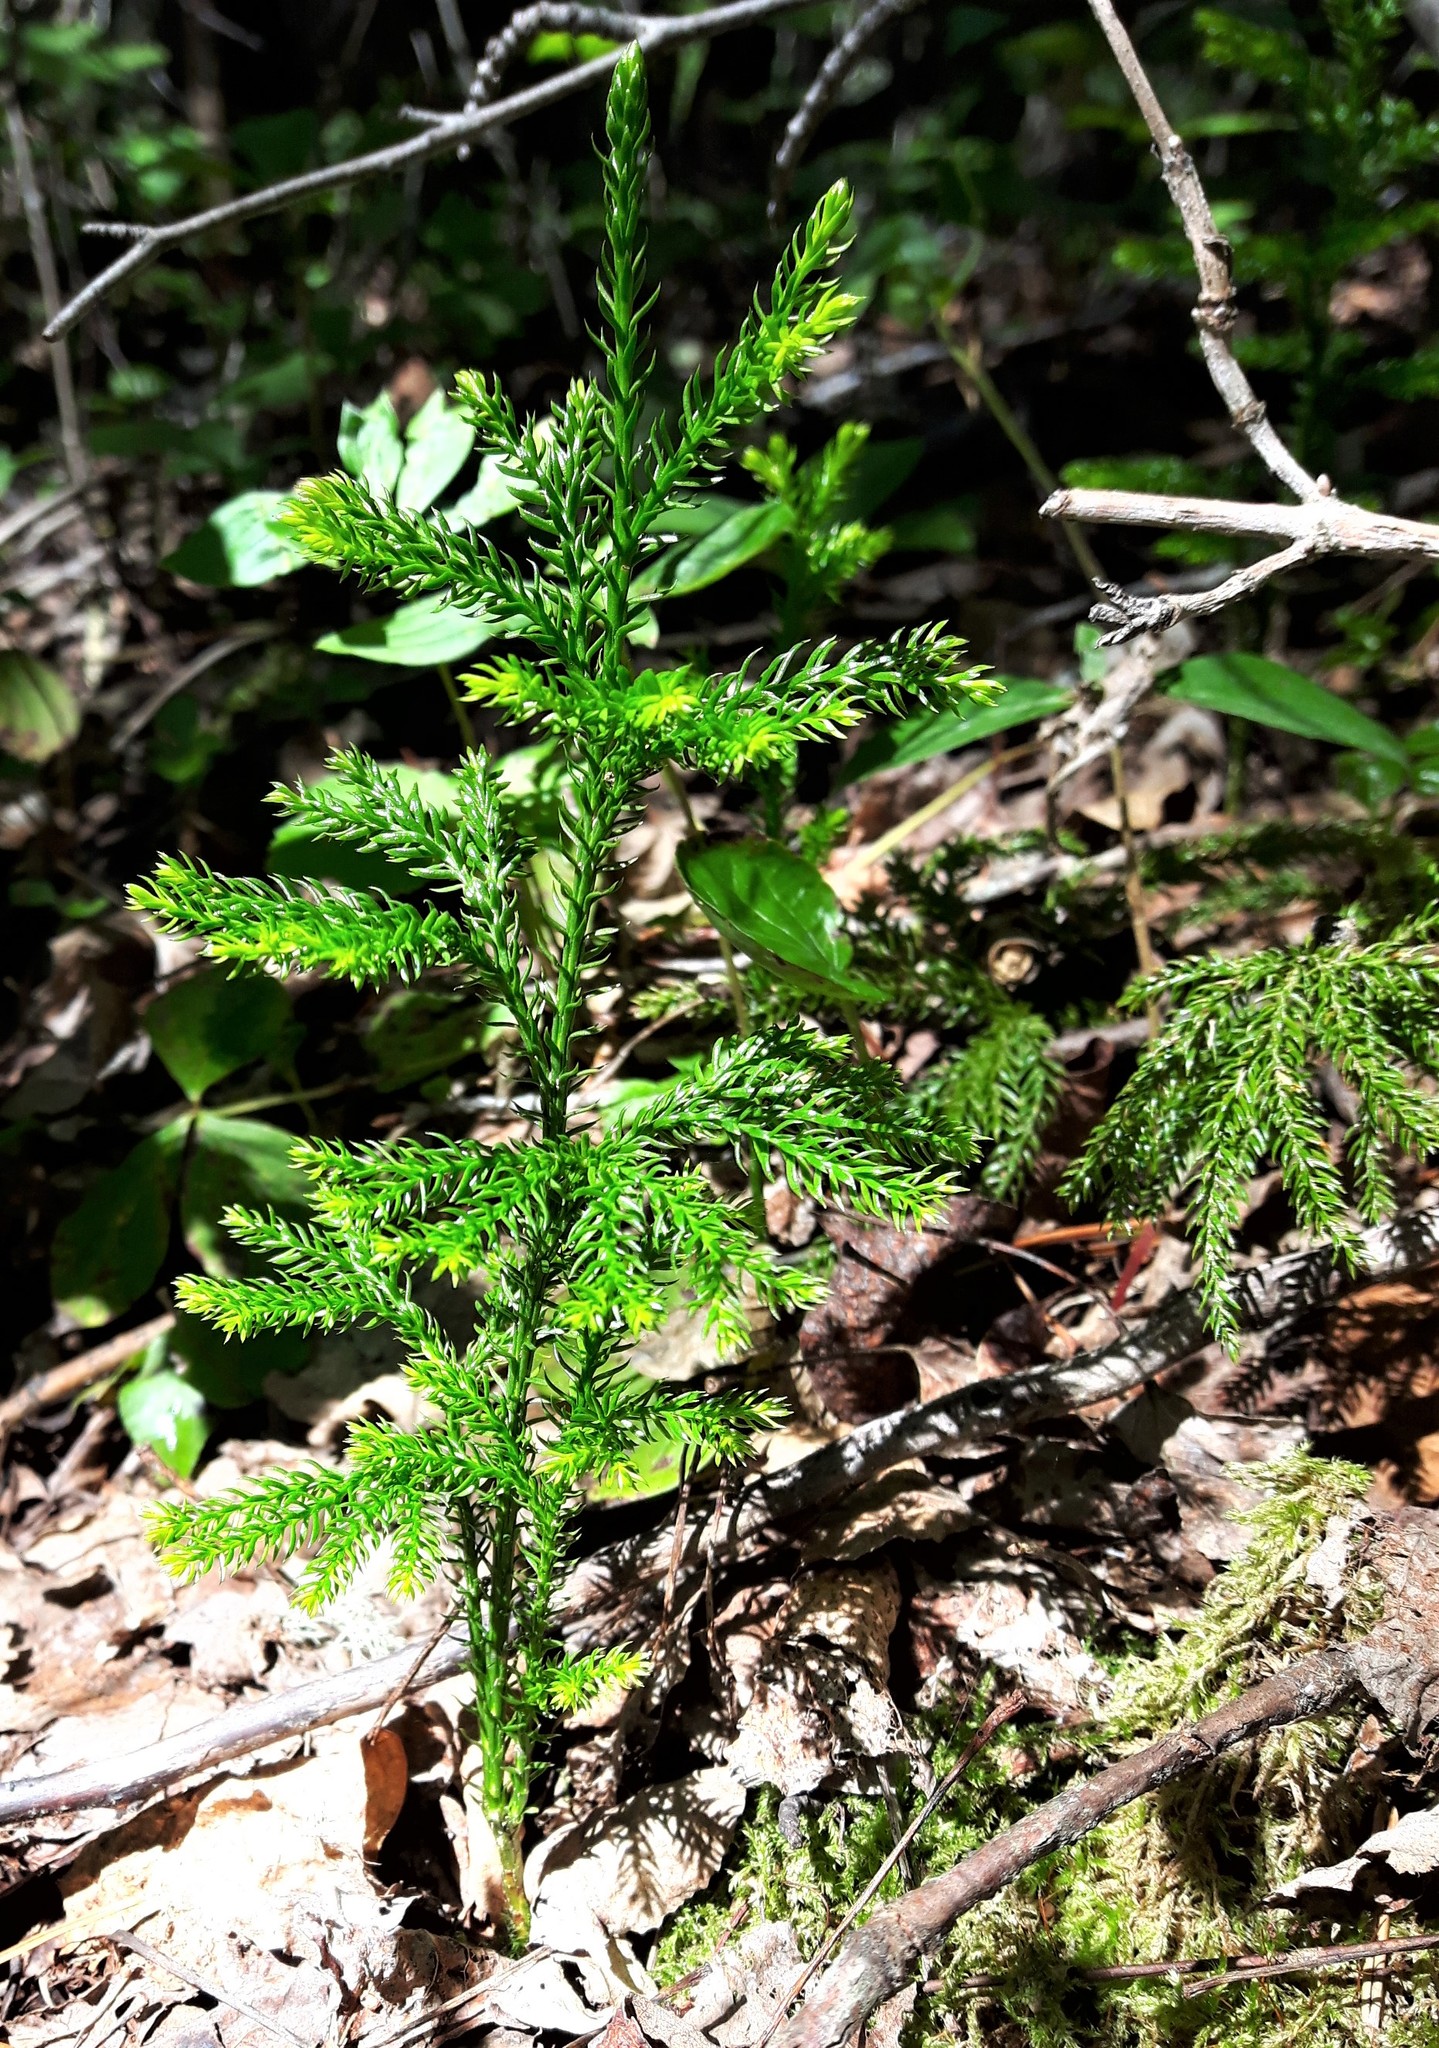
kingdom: Plantae
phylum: Tracheophyta
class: Lycopodiopsida
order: Lycopodiales
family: Lycopodiaceae
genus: Dendrolycopodium
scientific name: Dendrolycopodium dendroideum
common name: Northern tree-clubmoss
